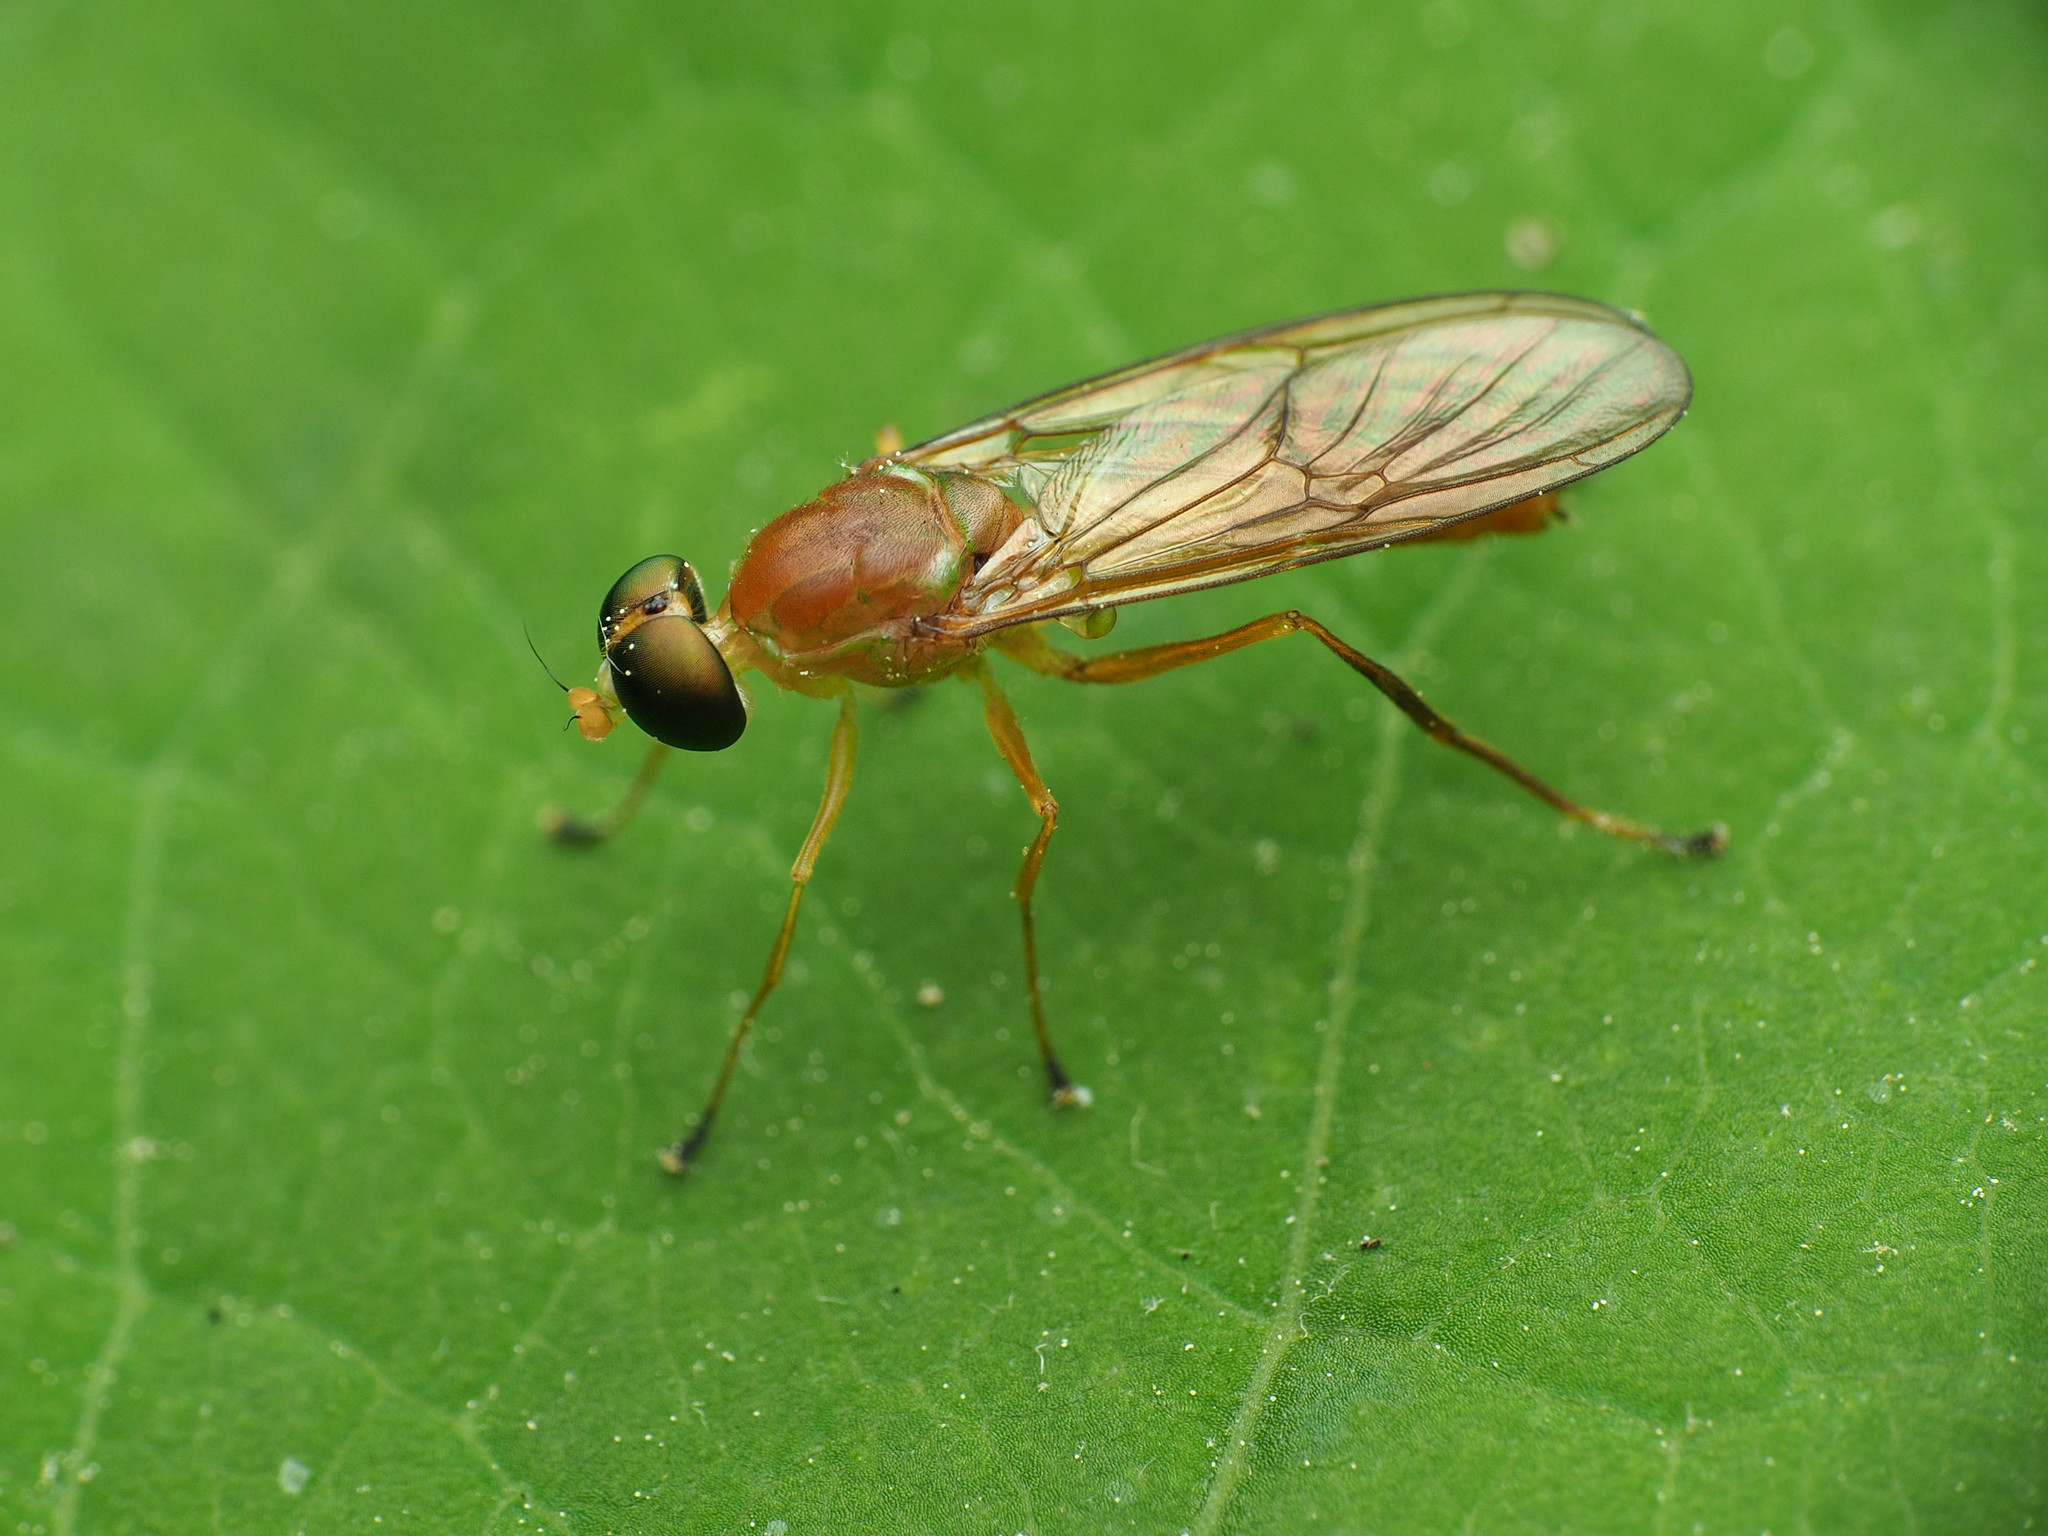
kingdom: Animalia
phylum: Arthropoda
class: Insecta
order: Diptera
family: Stratiomyidae
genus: Ptecticus
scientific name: Ptecticus trivittatus
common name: Compost fly
